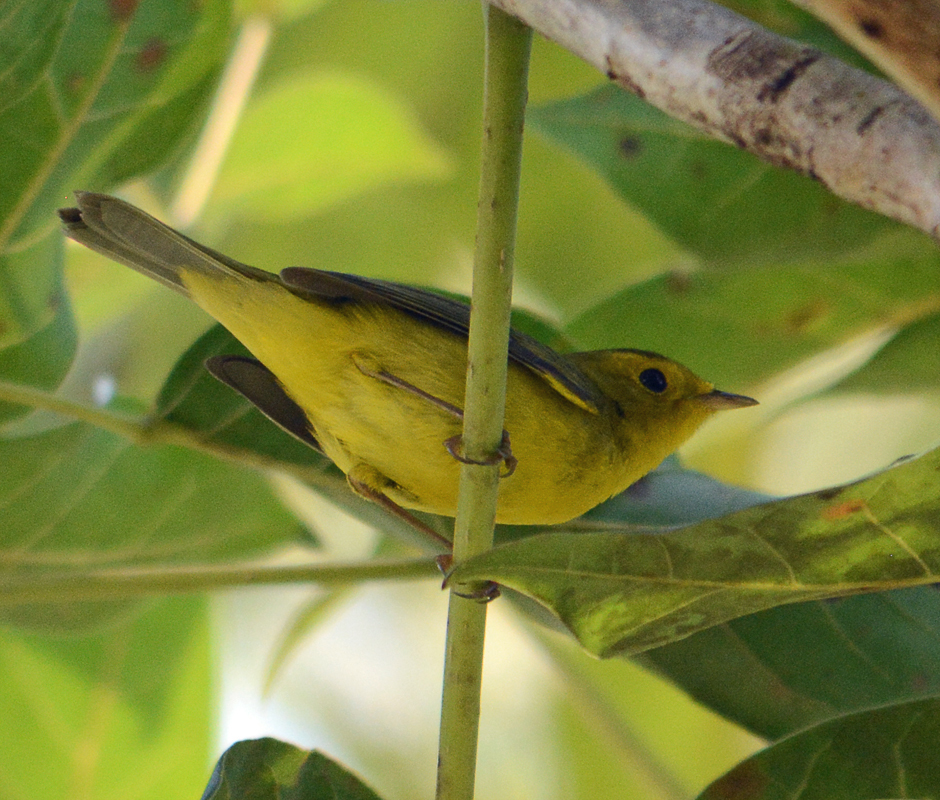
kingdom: Animalia
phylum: Chordata
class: Aves
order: Passeriformes
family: Parulidae
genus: Cardellina
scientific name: Cardellina pusilla
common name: Wilson's warbler
